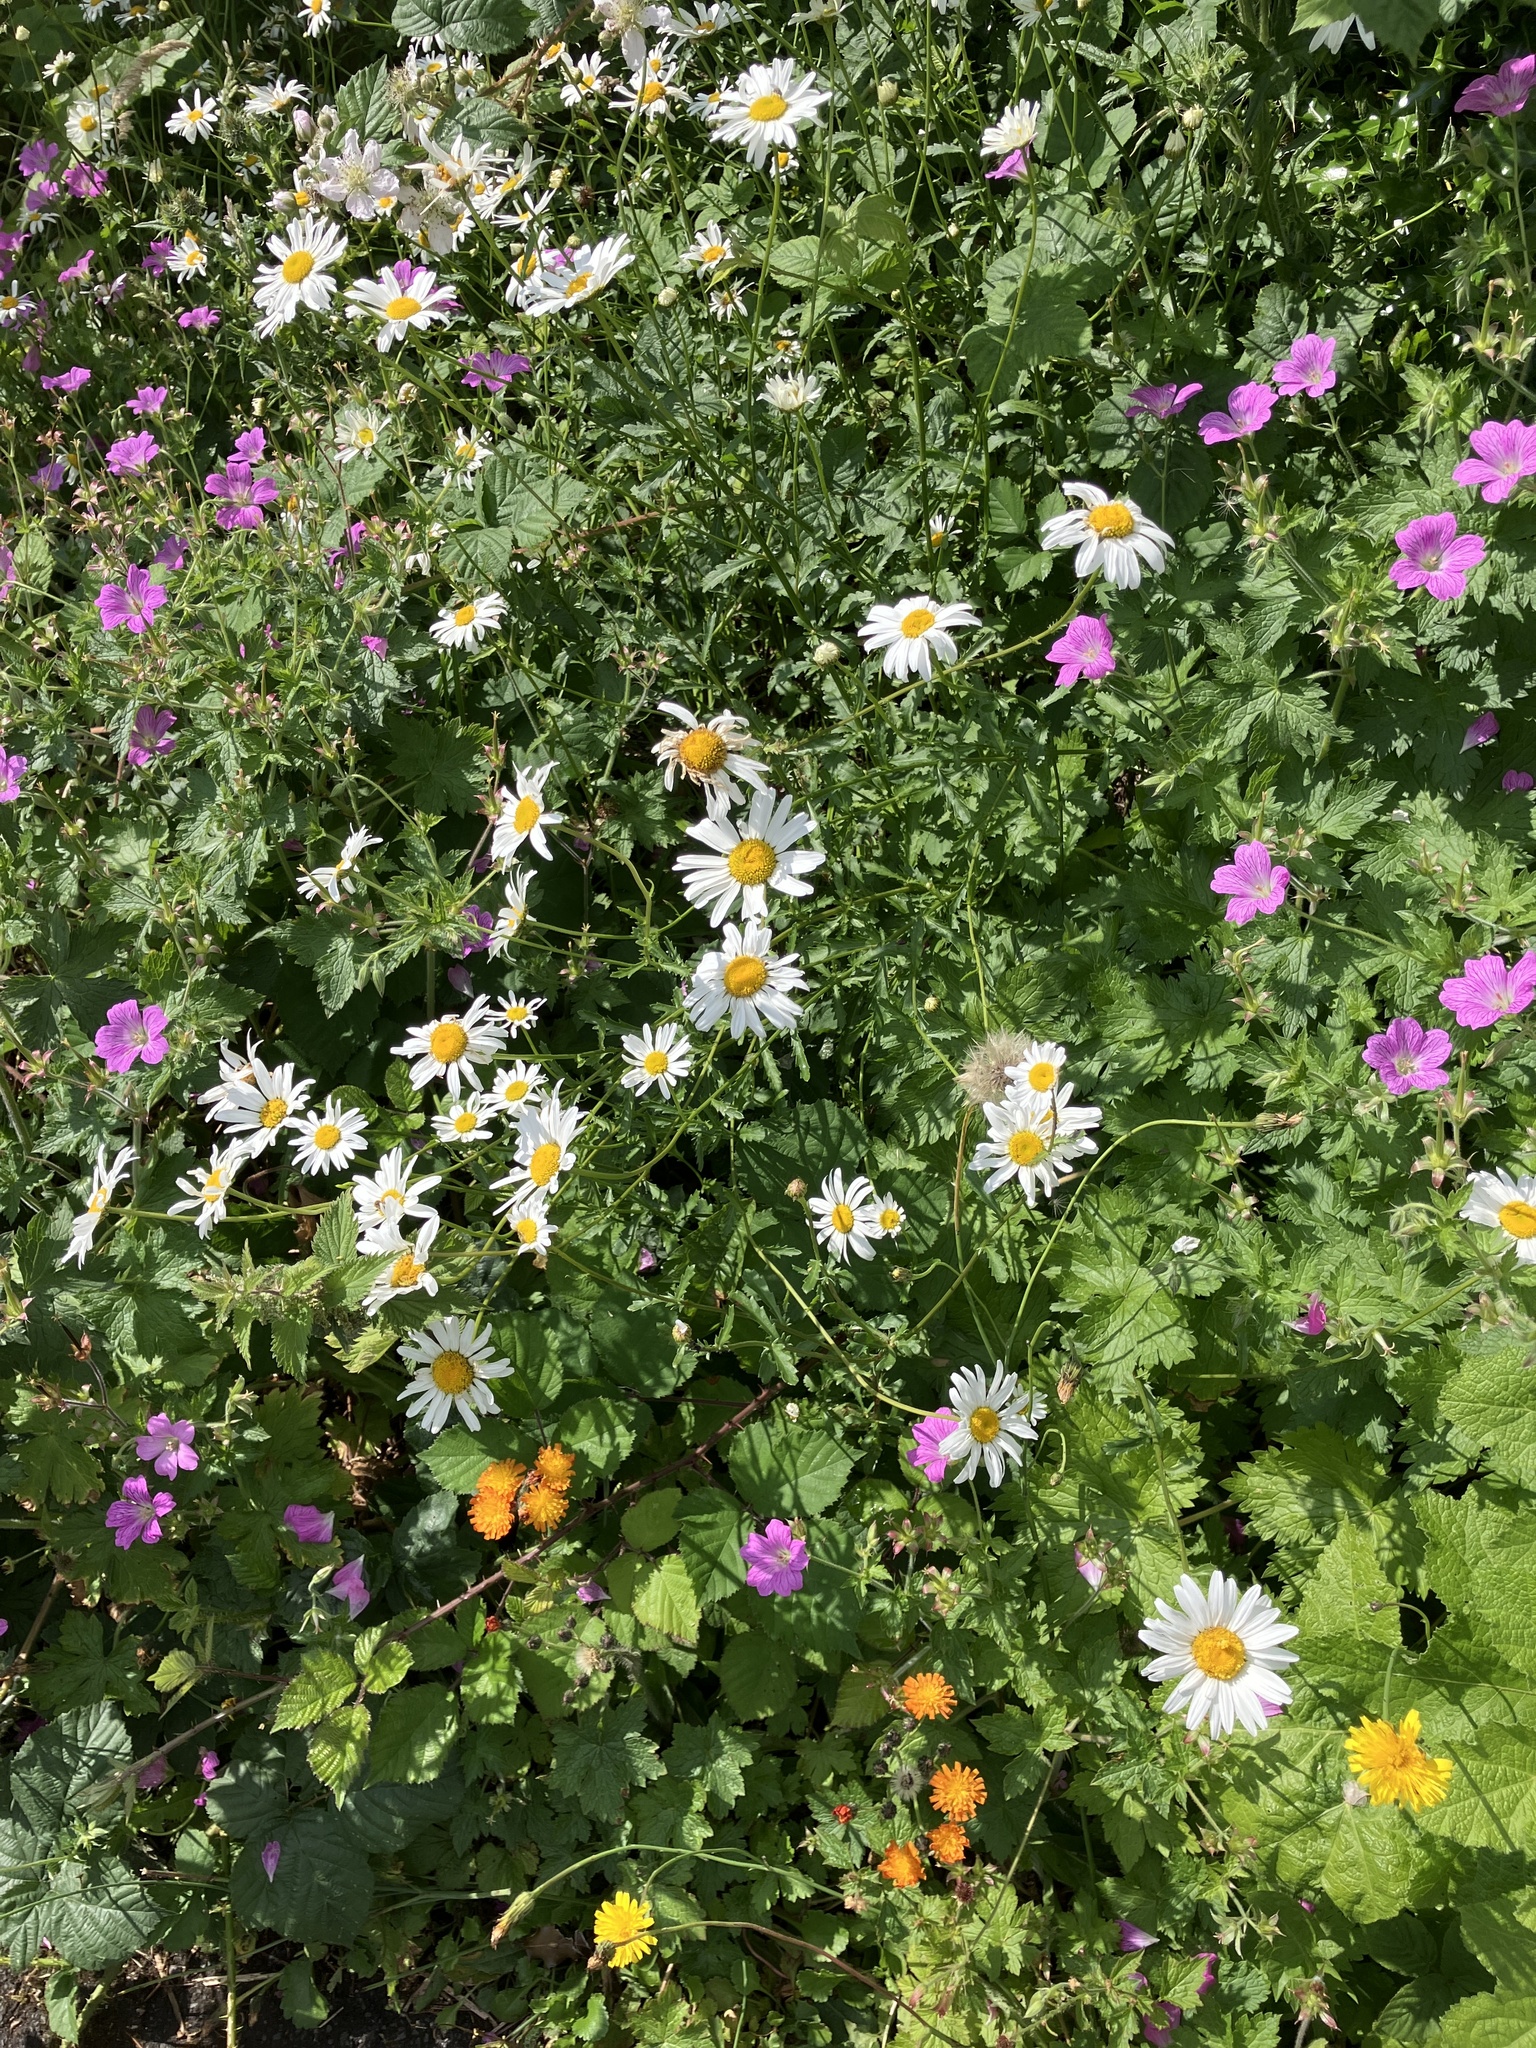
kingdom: Plantae
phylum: Tracheophyta
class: Magnoliopsida
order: Asterales
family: Asteraceae
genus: Leucanthemum
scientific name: Leucanthemum vulgare
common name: Oxeye daisy
